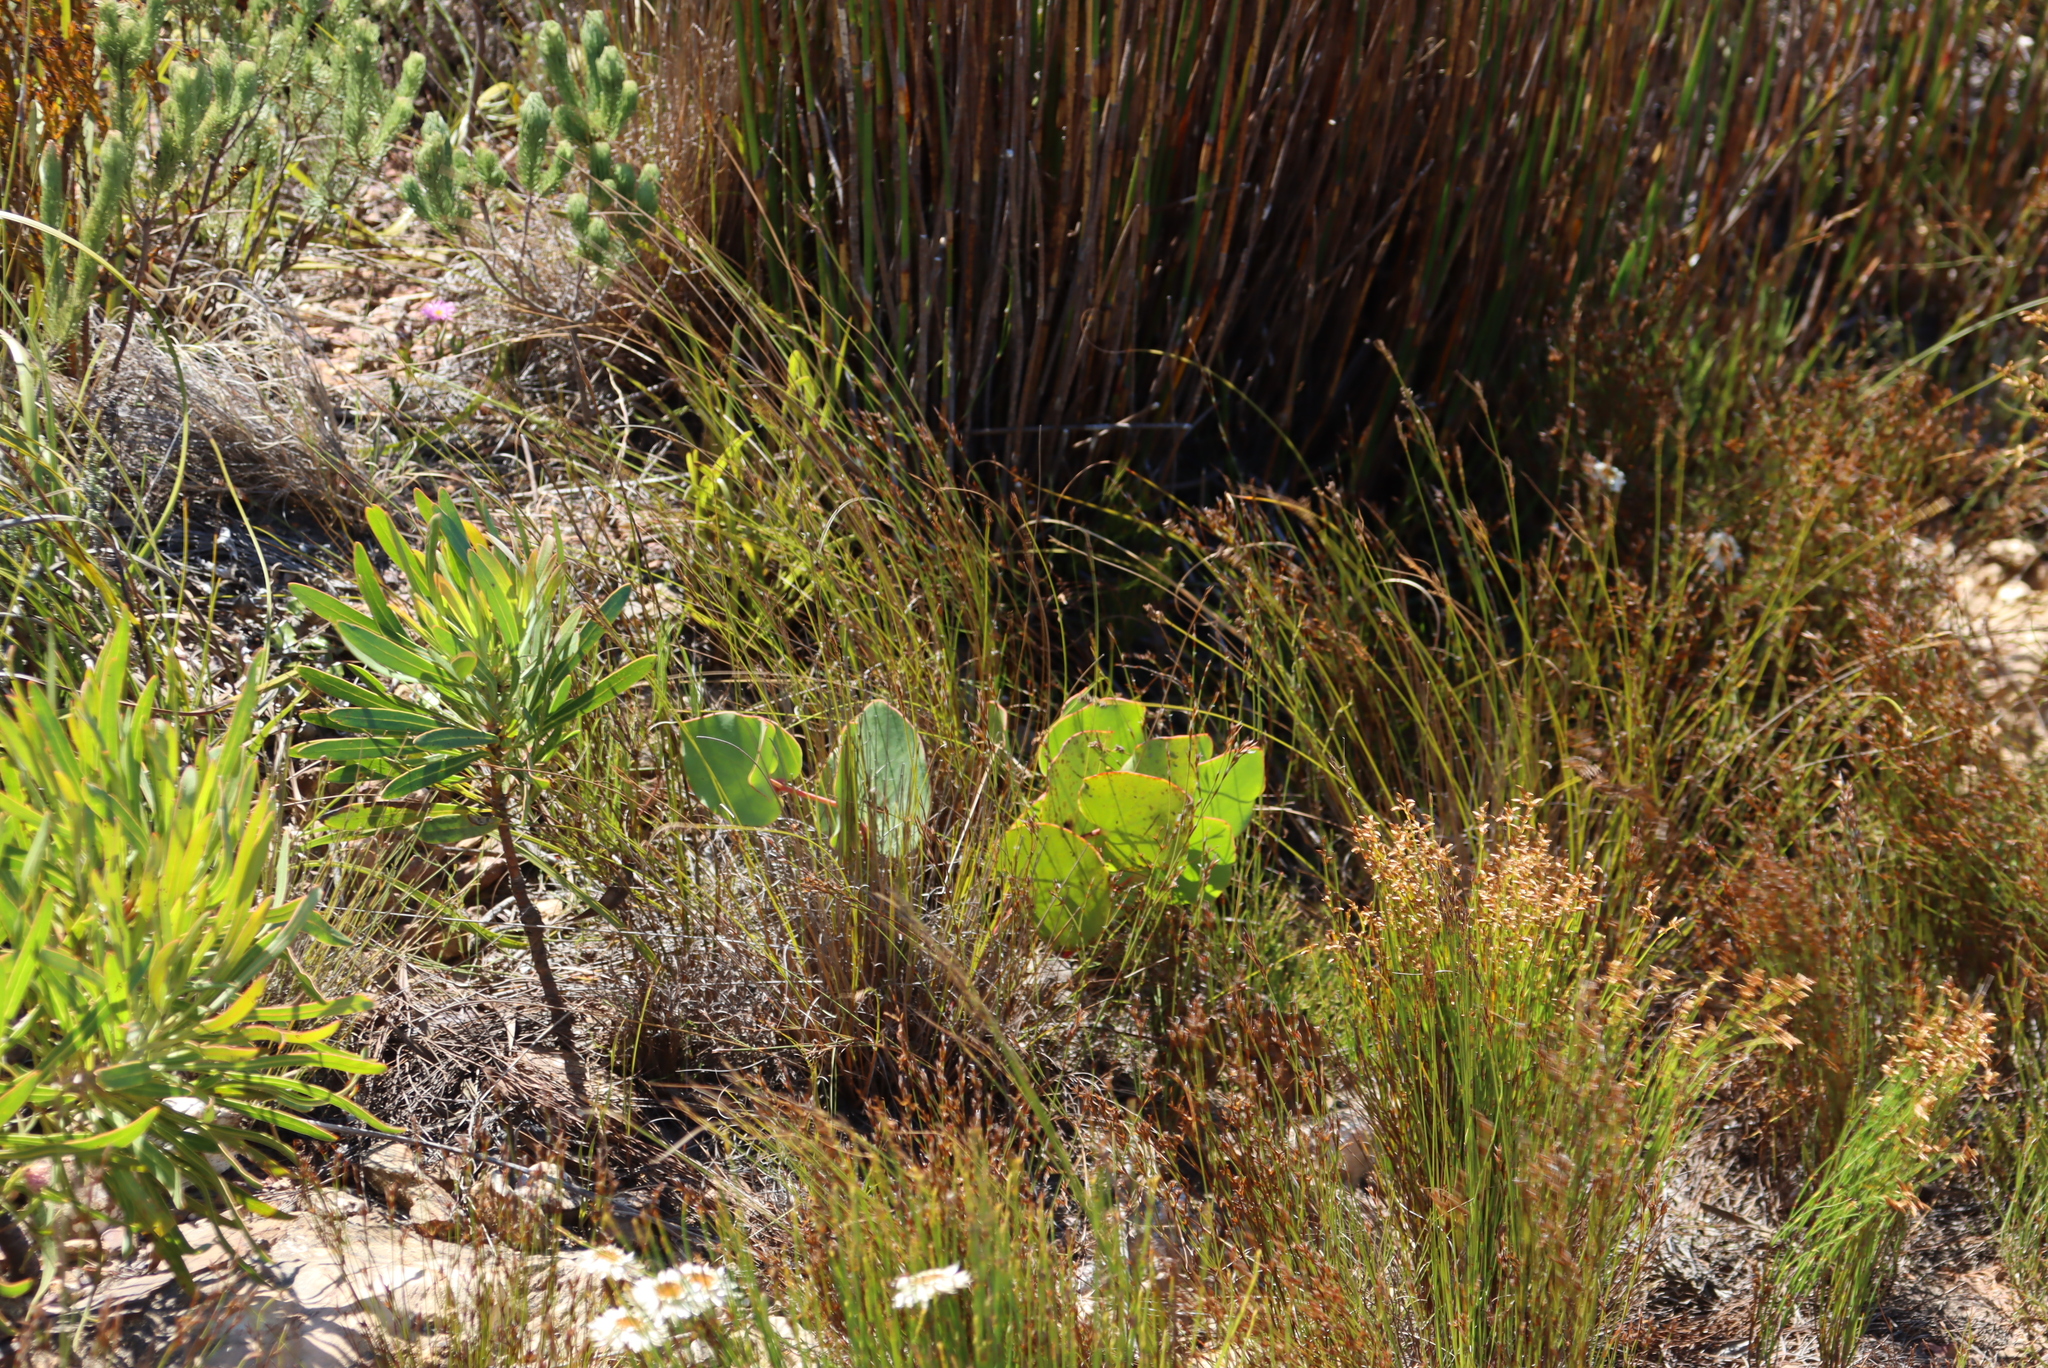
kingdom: Plantae
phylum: Tracheophyta
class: Magnoliopsida
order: Proteales
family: Proteaceae
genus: Protea
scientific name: Protea cordata
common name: Heart-leaf sugarbush
